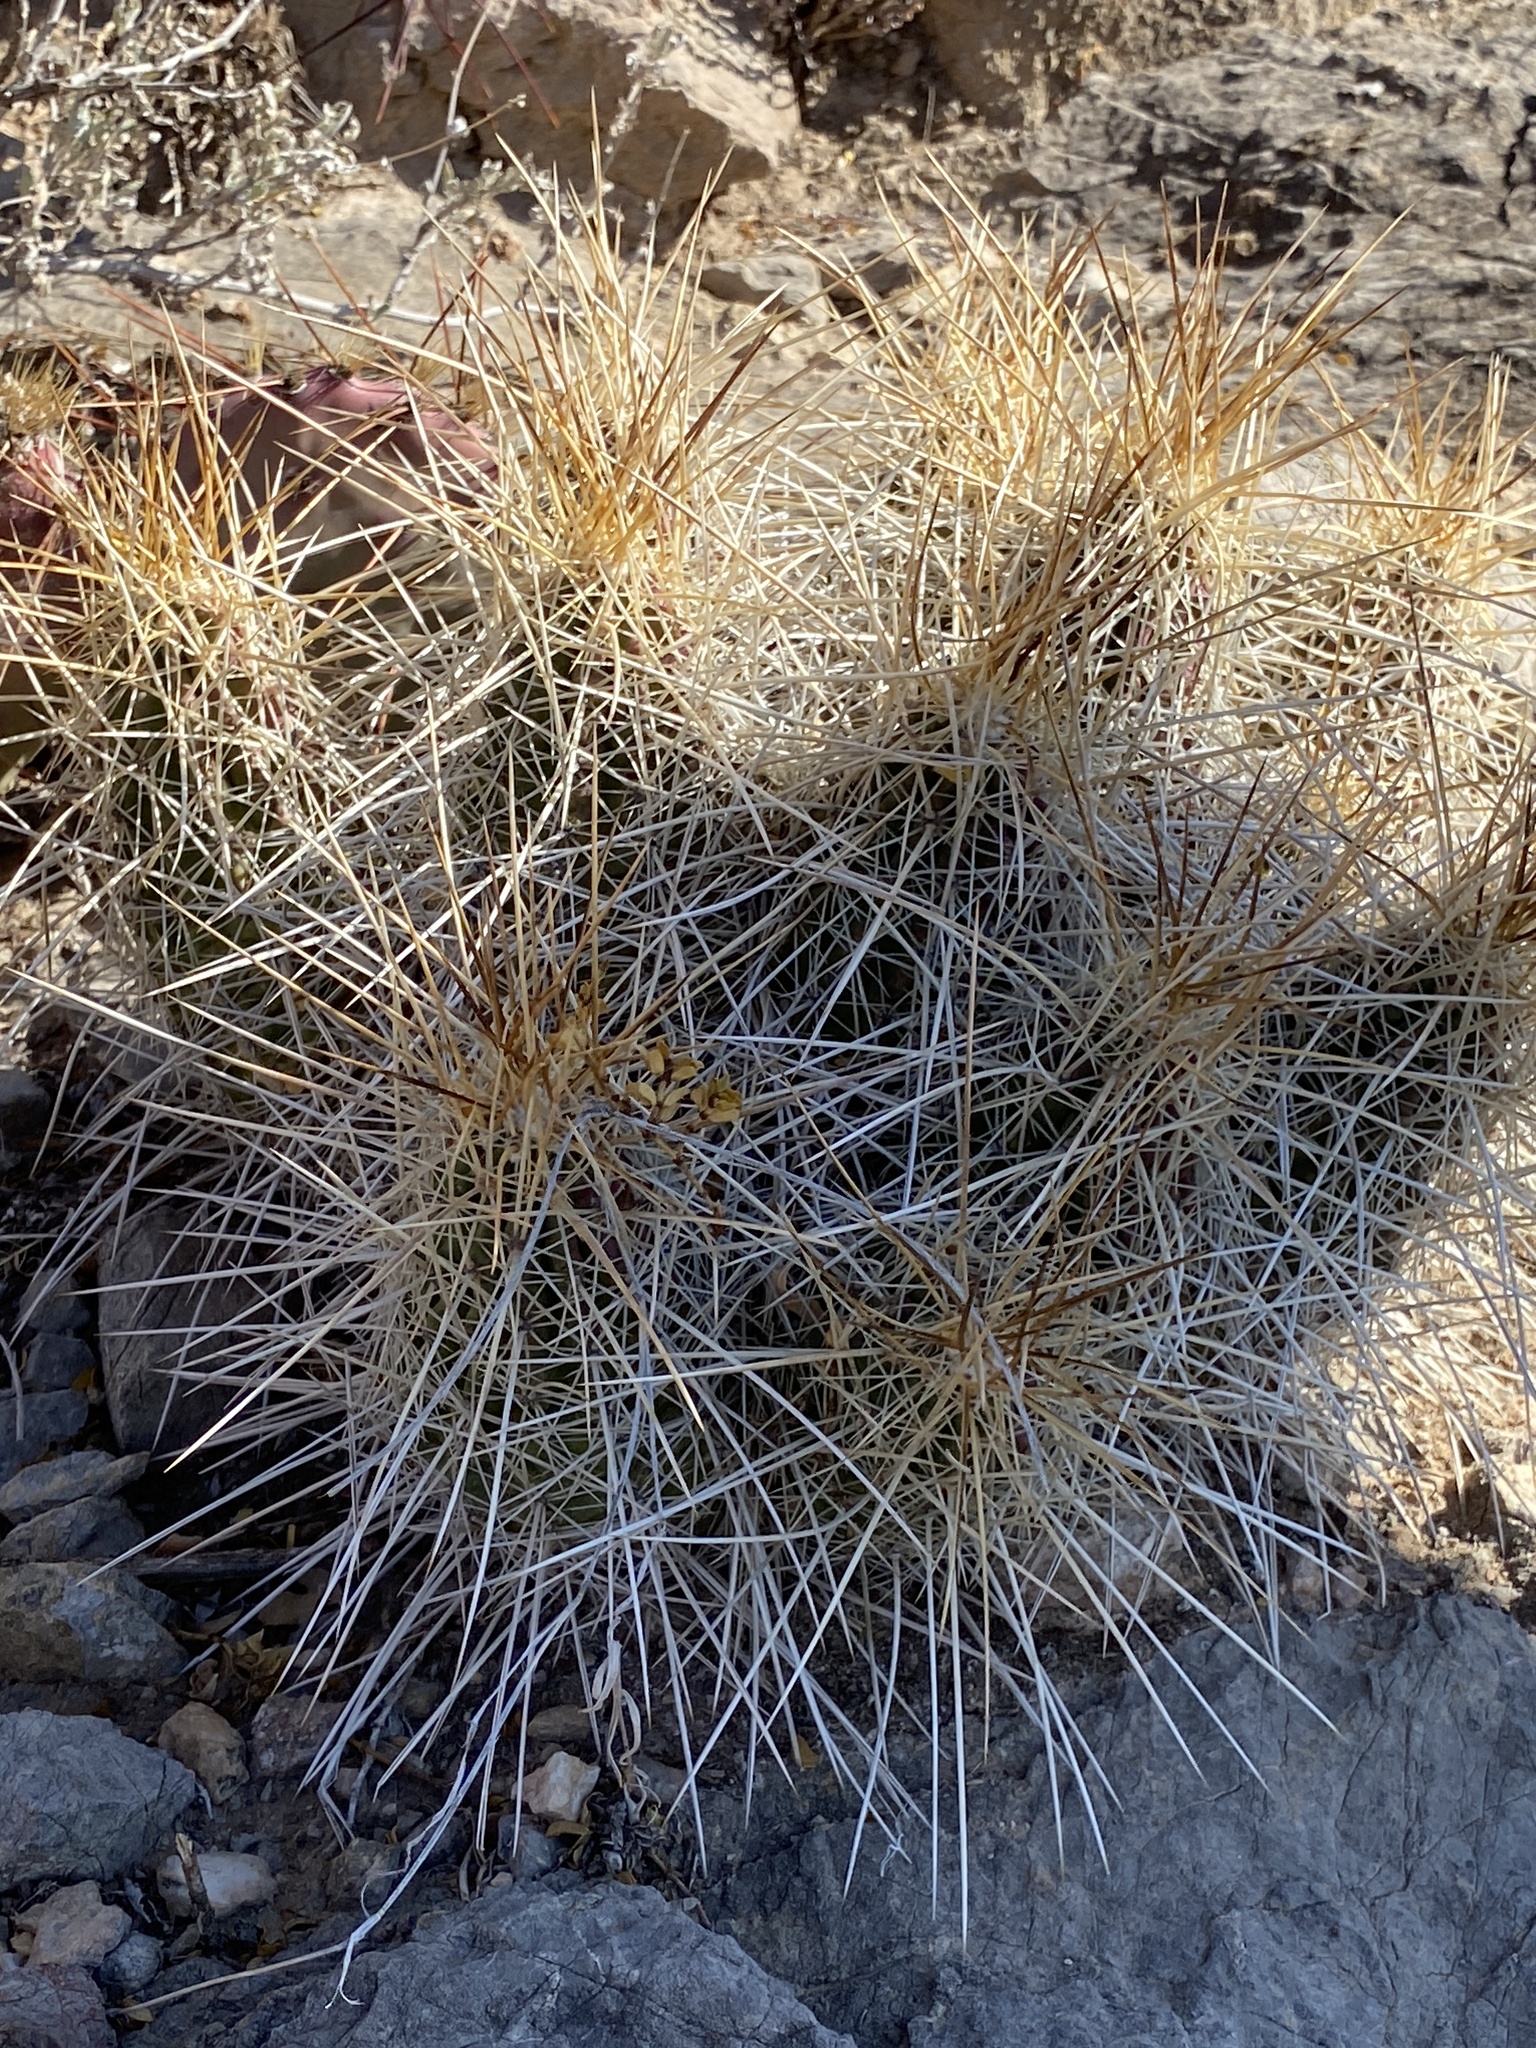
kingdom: Plantae
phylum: Tracheophyta
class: Magnoliopsida
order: Caryophyllales
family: Cactaceae
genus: Echinocereus
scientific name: Echinocereus stramineus
